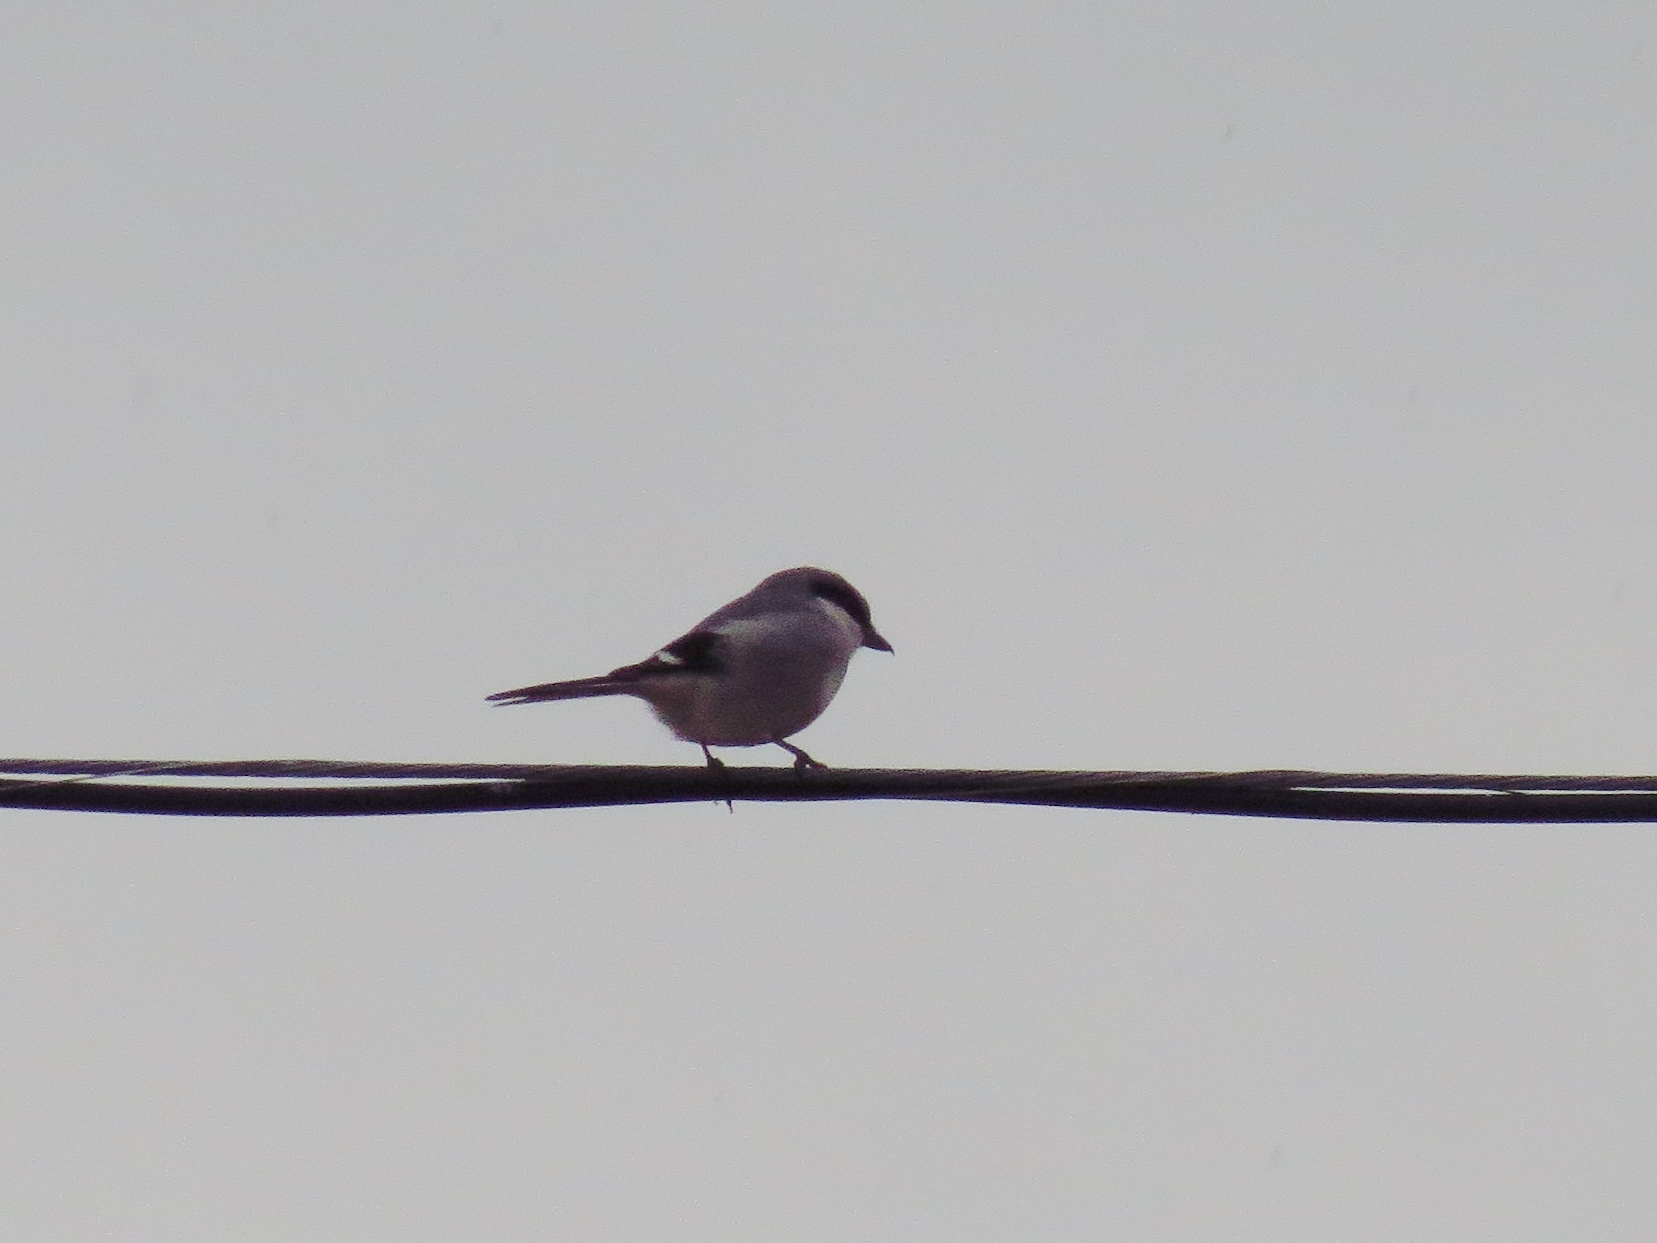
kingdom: Animalia
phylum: Chordata
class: Aves
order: Passeriformes
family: Laniidae
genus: Lanius
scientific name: Lanius ludovicianus
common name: Loggerhead shrike
